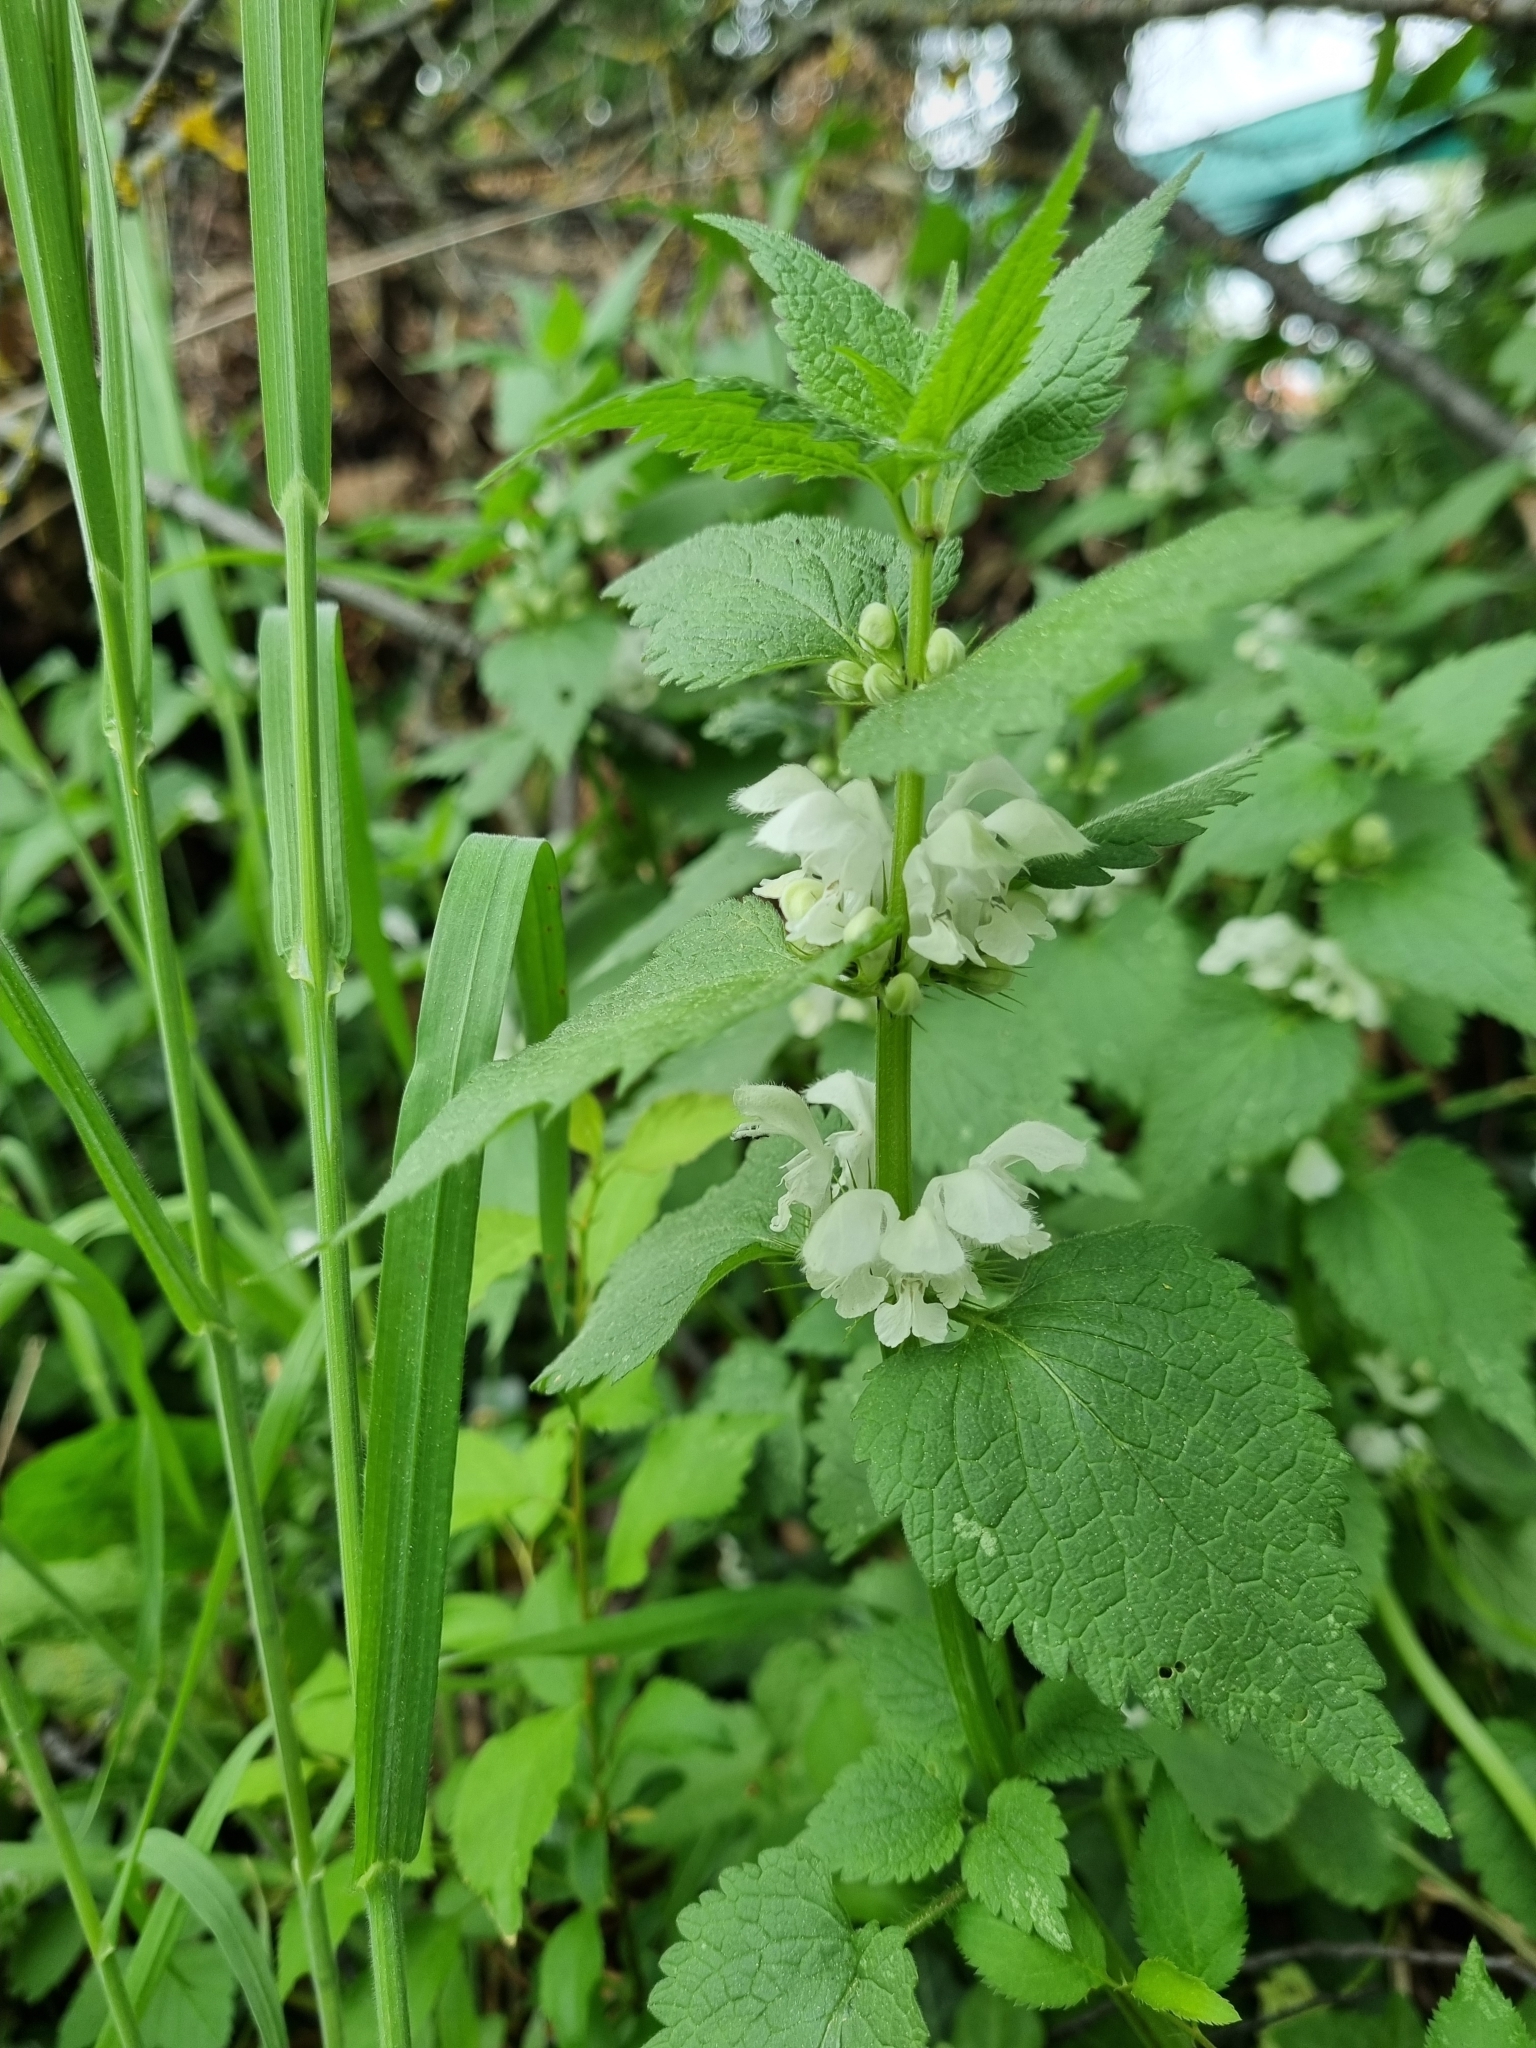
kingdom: Plantae
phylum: Tracheophyta
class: Magnoliopsida
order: Lamiales
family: Lamiaceae
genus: Lamium
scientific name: Lamium album
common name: White dead-nettle
